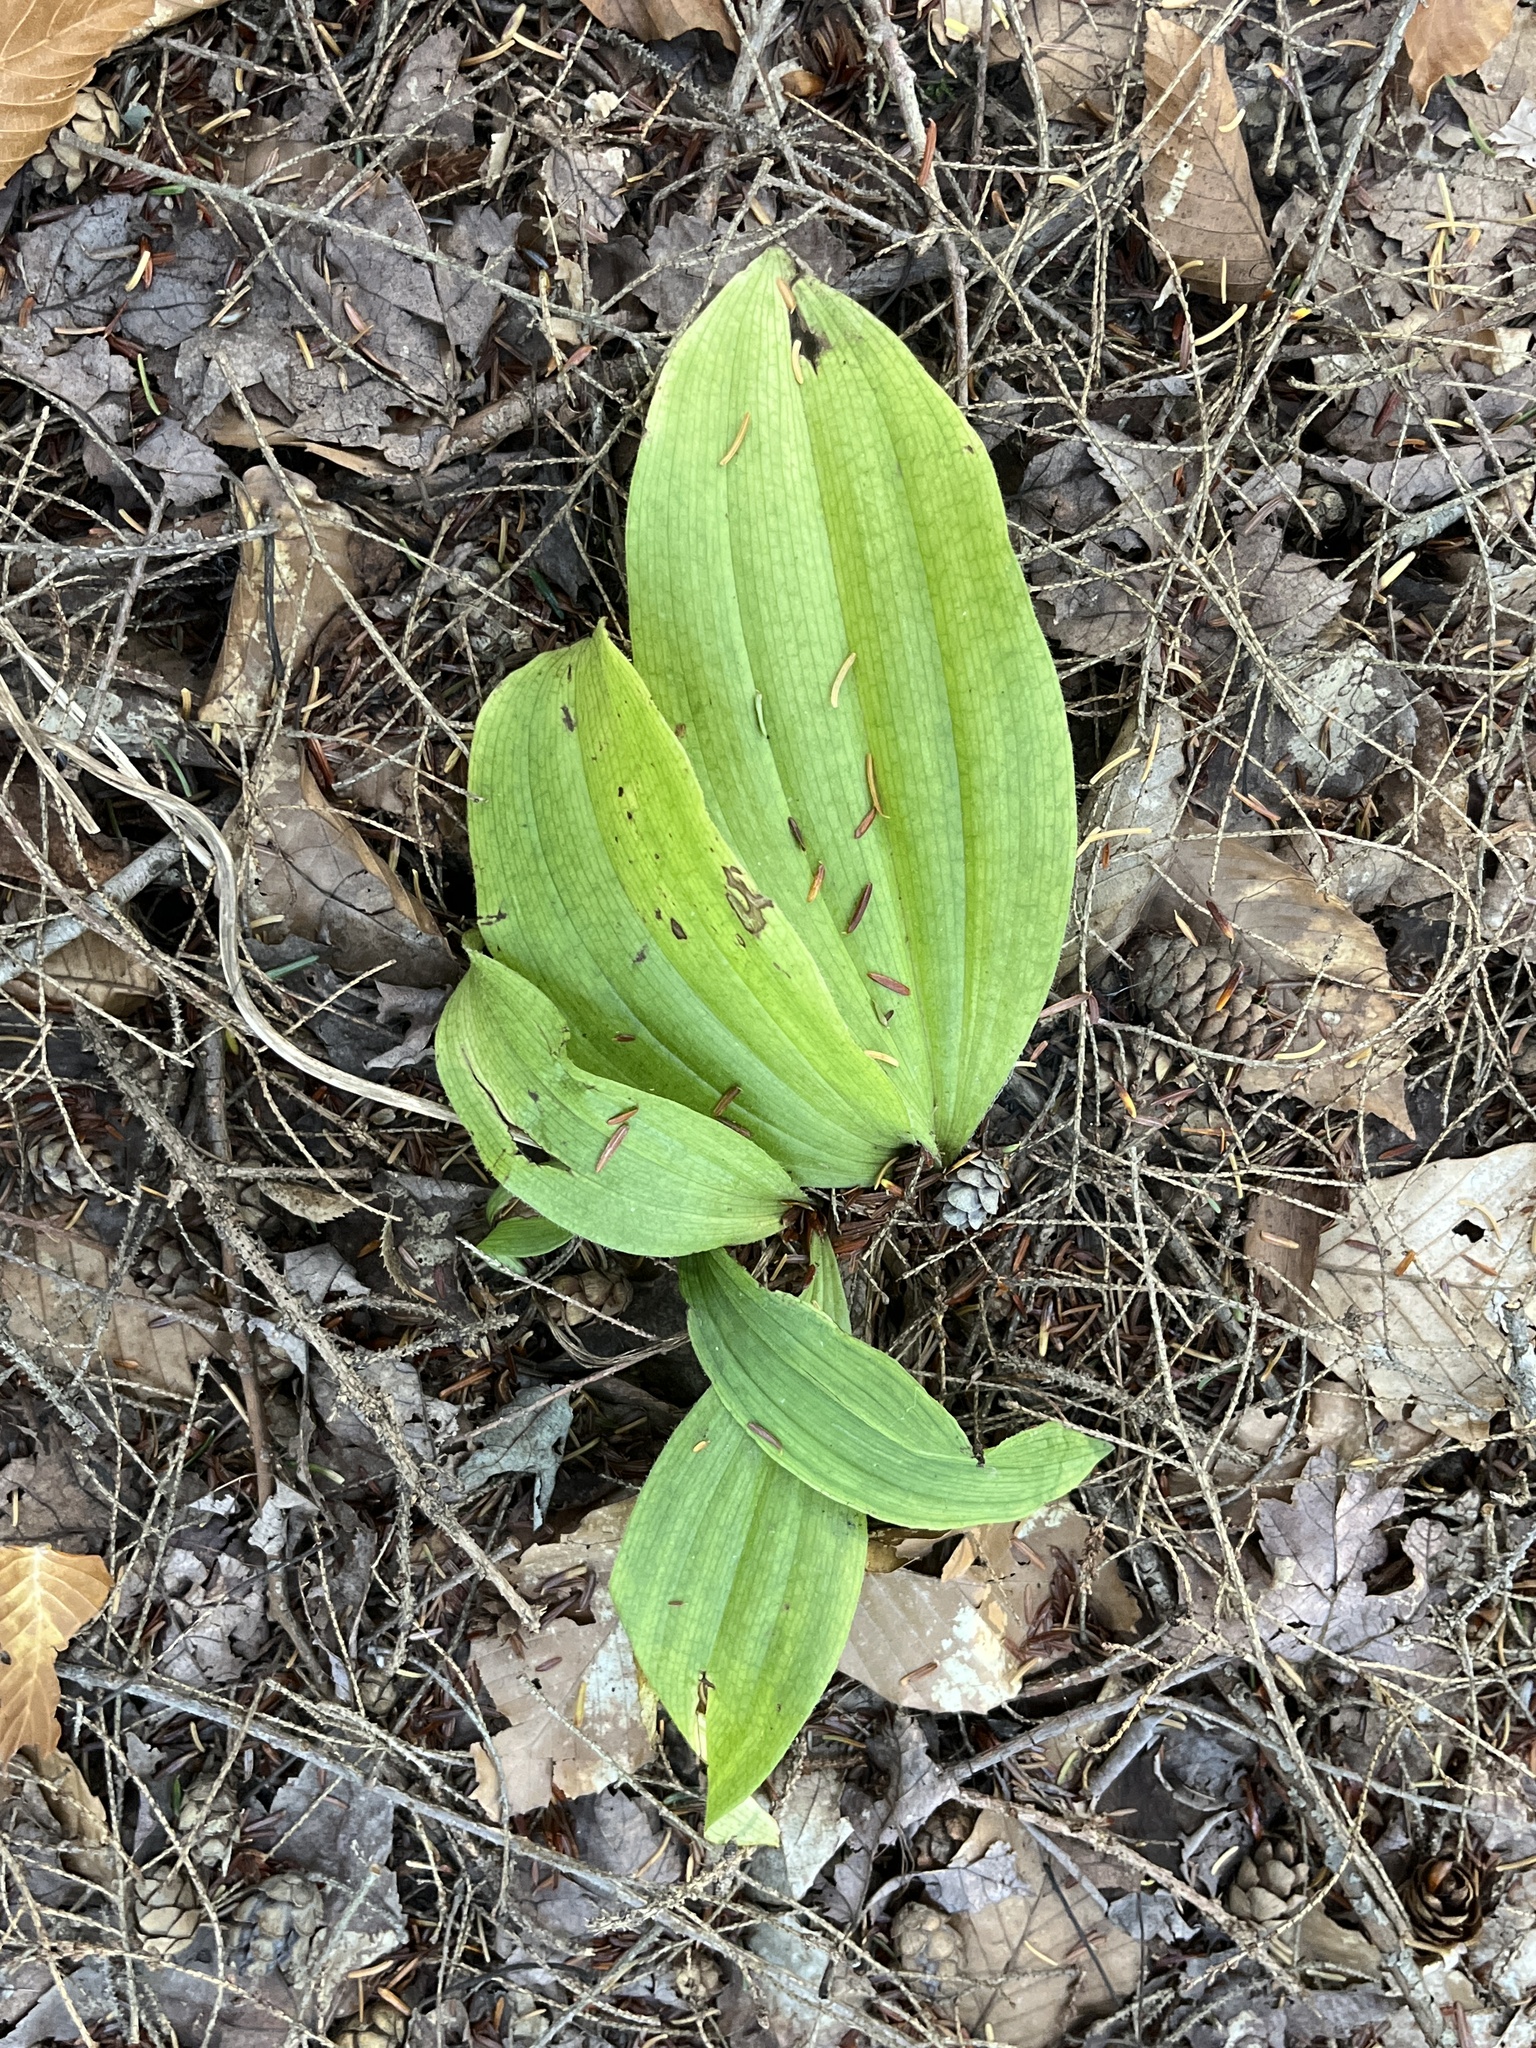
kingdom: Plantae
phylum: Tracheophyta
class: Liliopsida
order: Asparagales
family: Orchidaceae
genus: Cypripedium
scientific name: Cypripedium acaule
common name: Pink lady's-slipper
